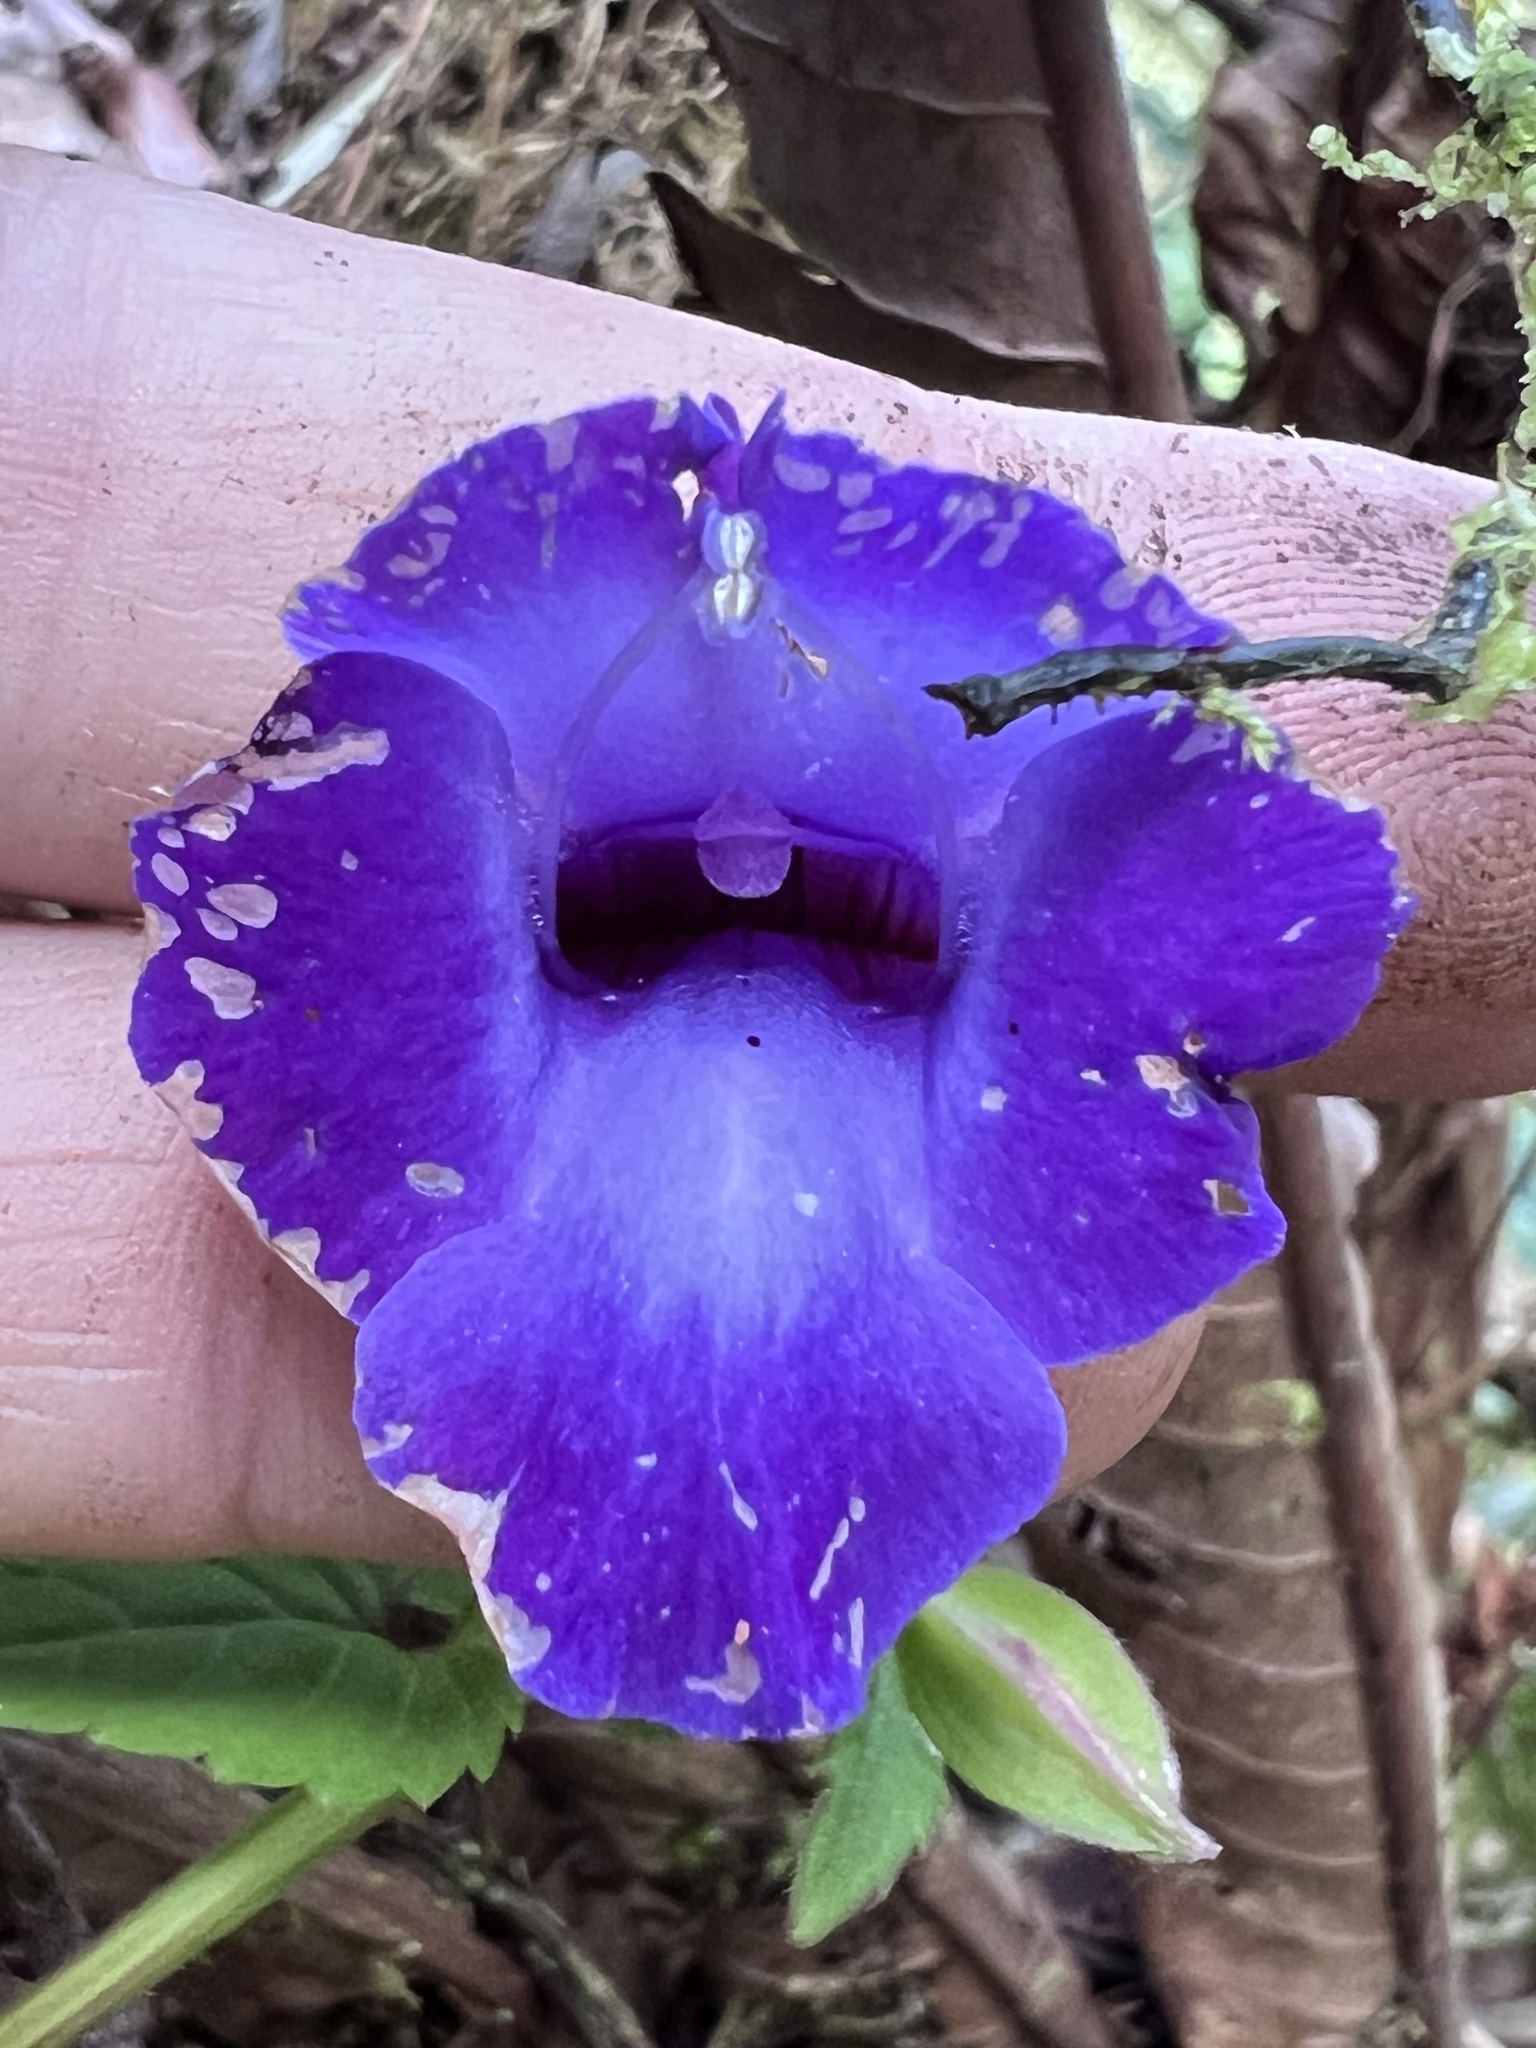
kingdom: Plantae
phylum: Tracheophyta
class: Magnoliopsida
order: Lamiales
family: Linderniaceae
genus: Torenia
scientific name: Torenia concolor
